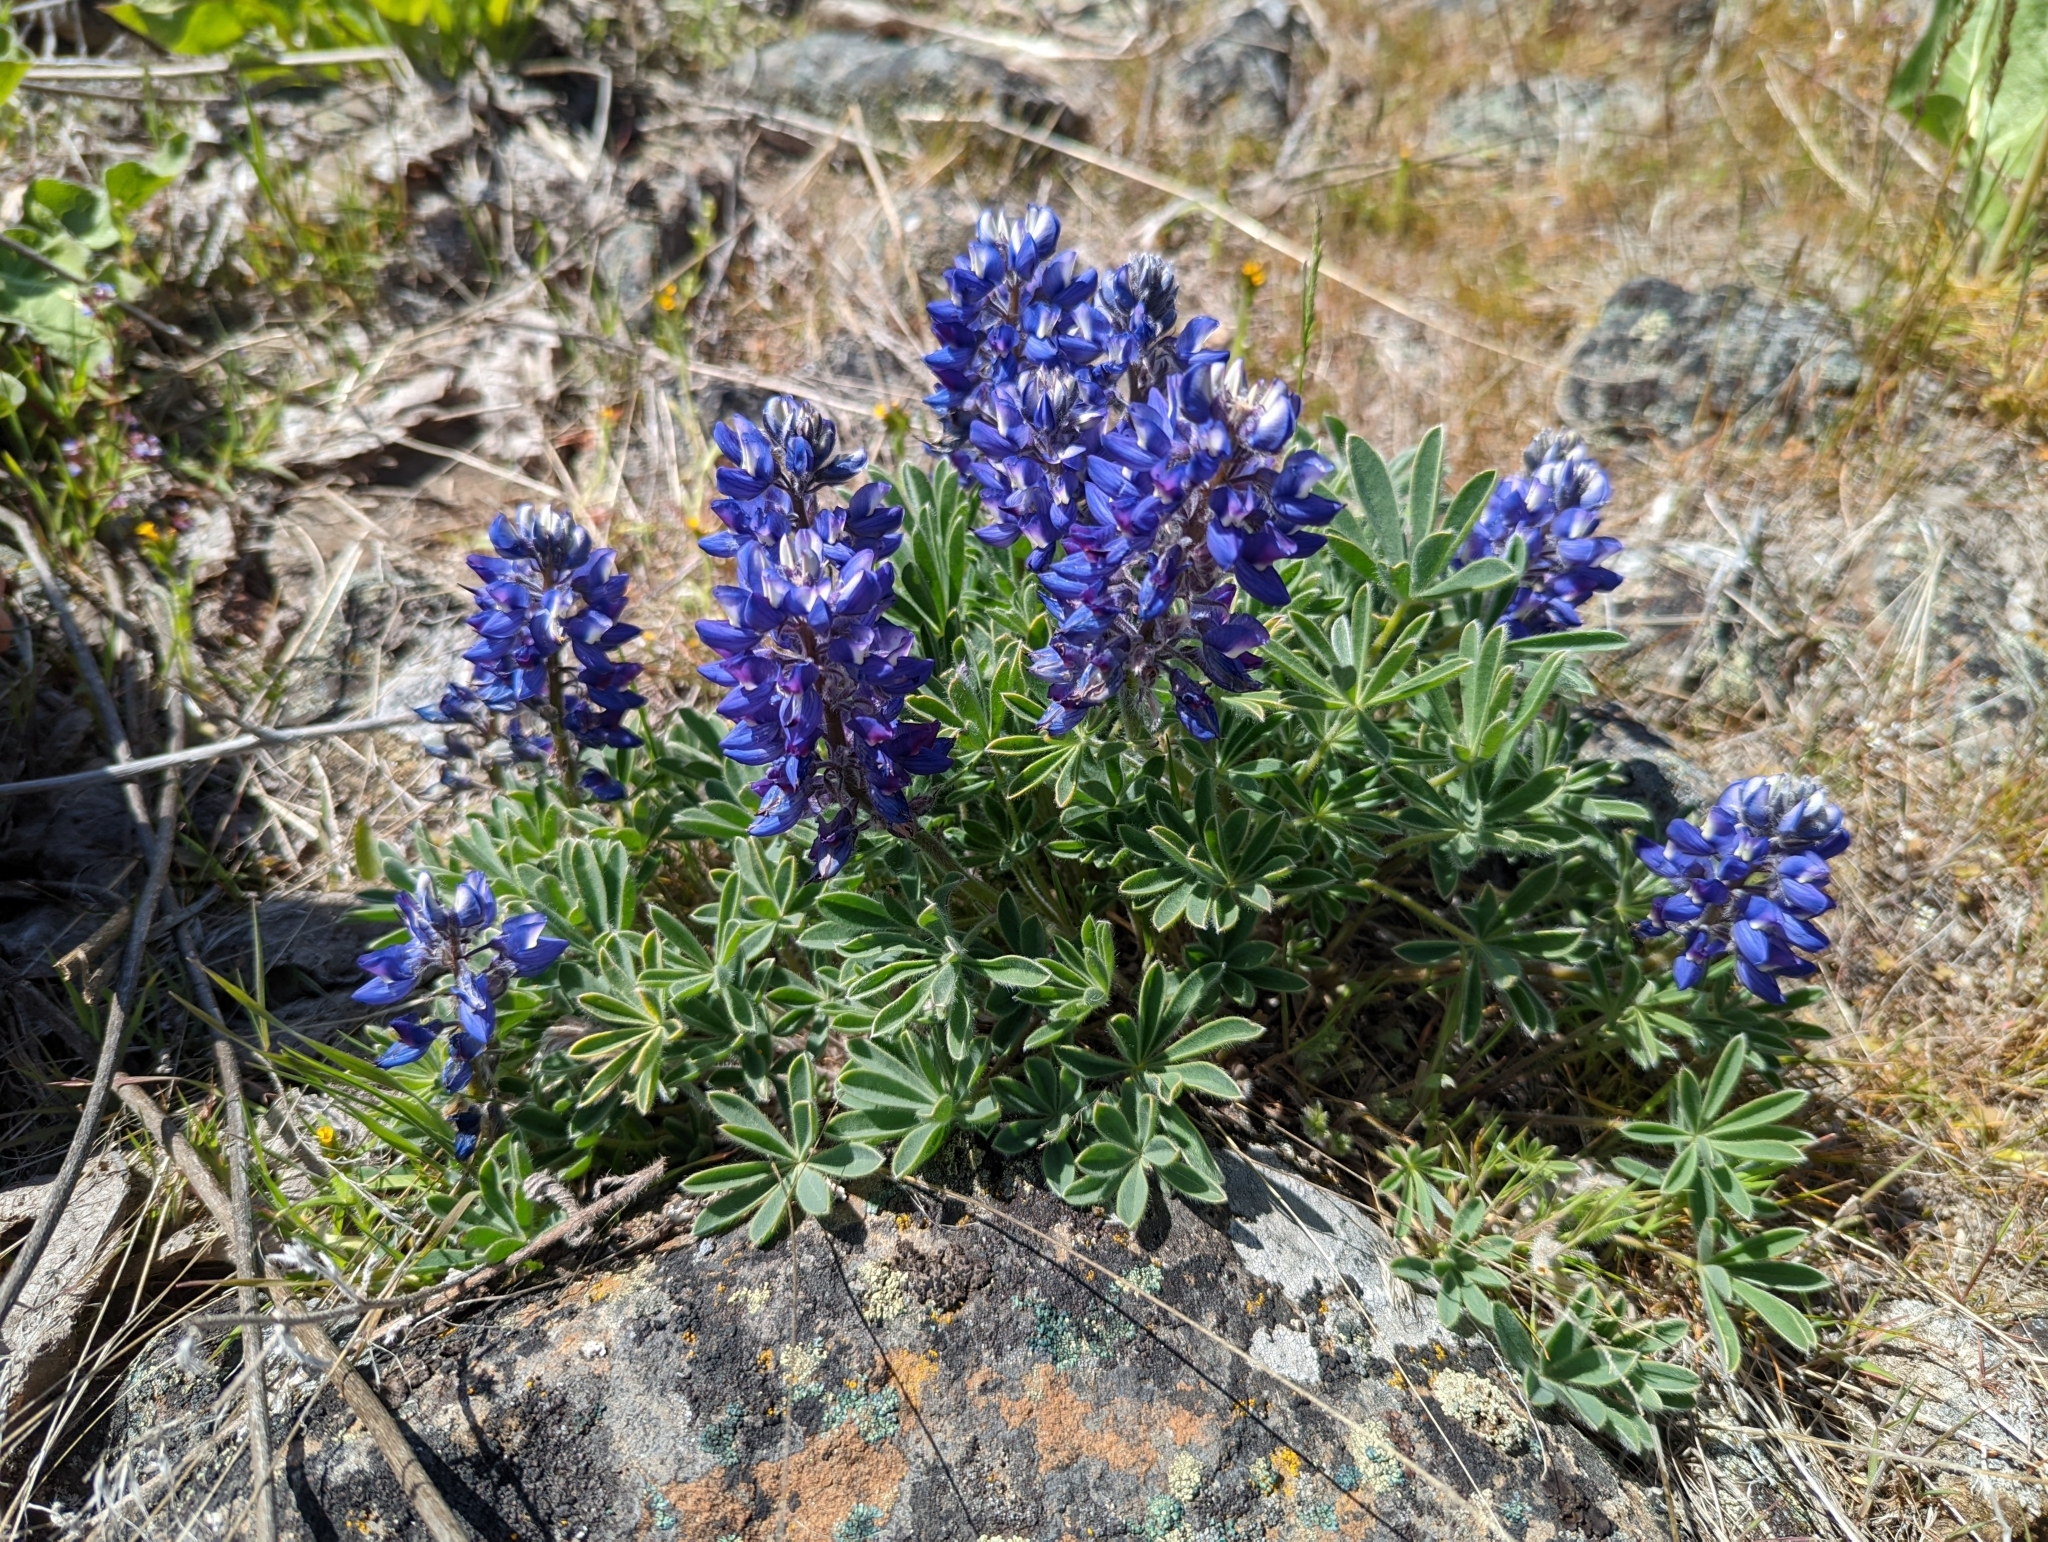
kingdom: Plantae
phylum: Tracheophyta
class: Magnoliopsida
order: Fabales
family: Fabaceae
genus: Lupinus
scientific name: Lupinus saxosus
